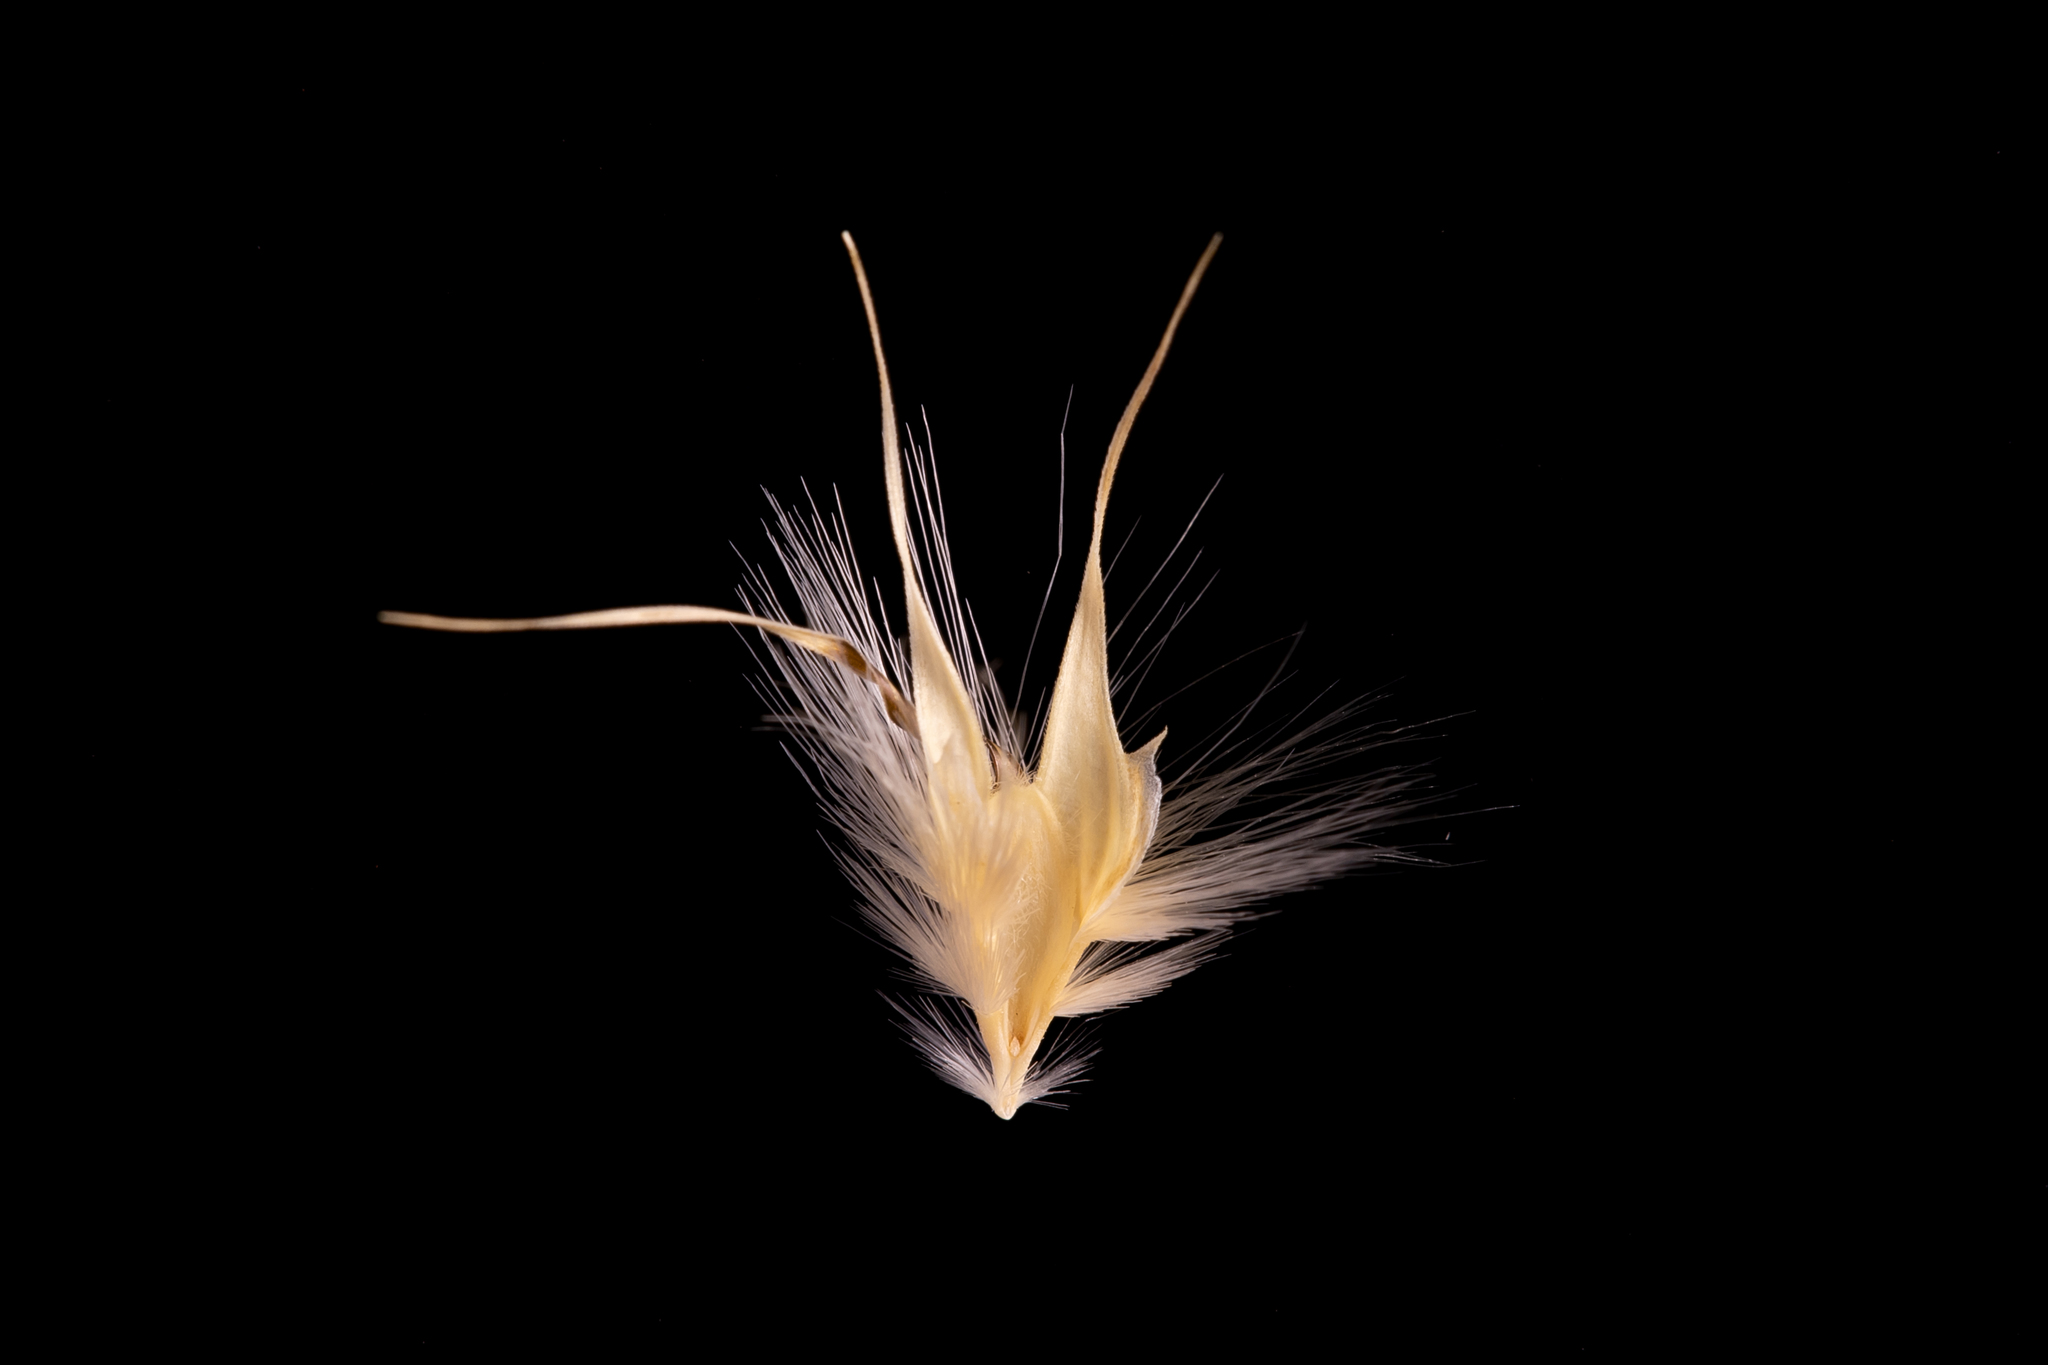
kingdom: Plantae
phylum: Tracheophyta
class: Liliopsida
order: Poales
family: Poaceae
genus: Rytidosperma
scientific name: Rytidosperma auriculatum
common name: Lobed wallaby grass
